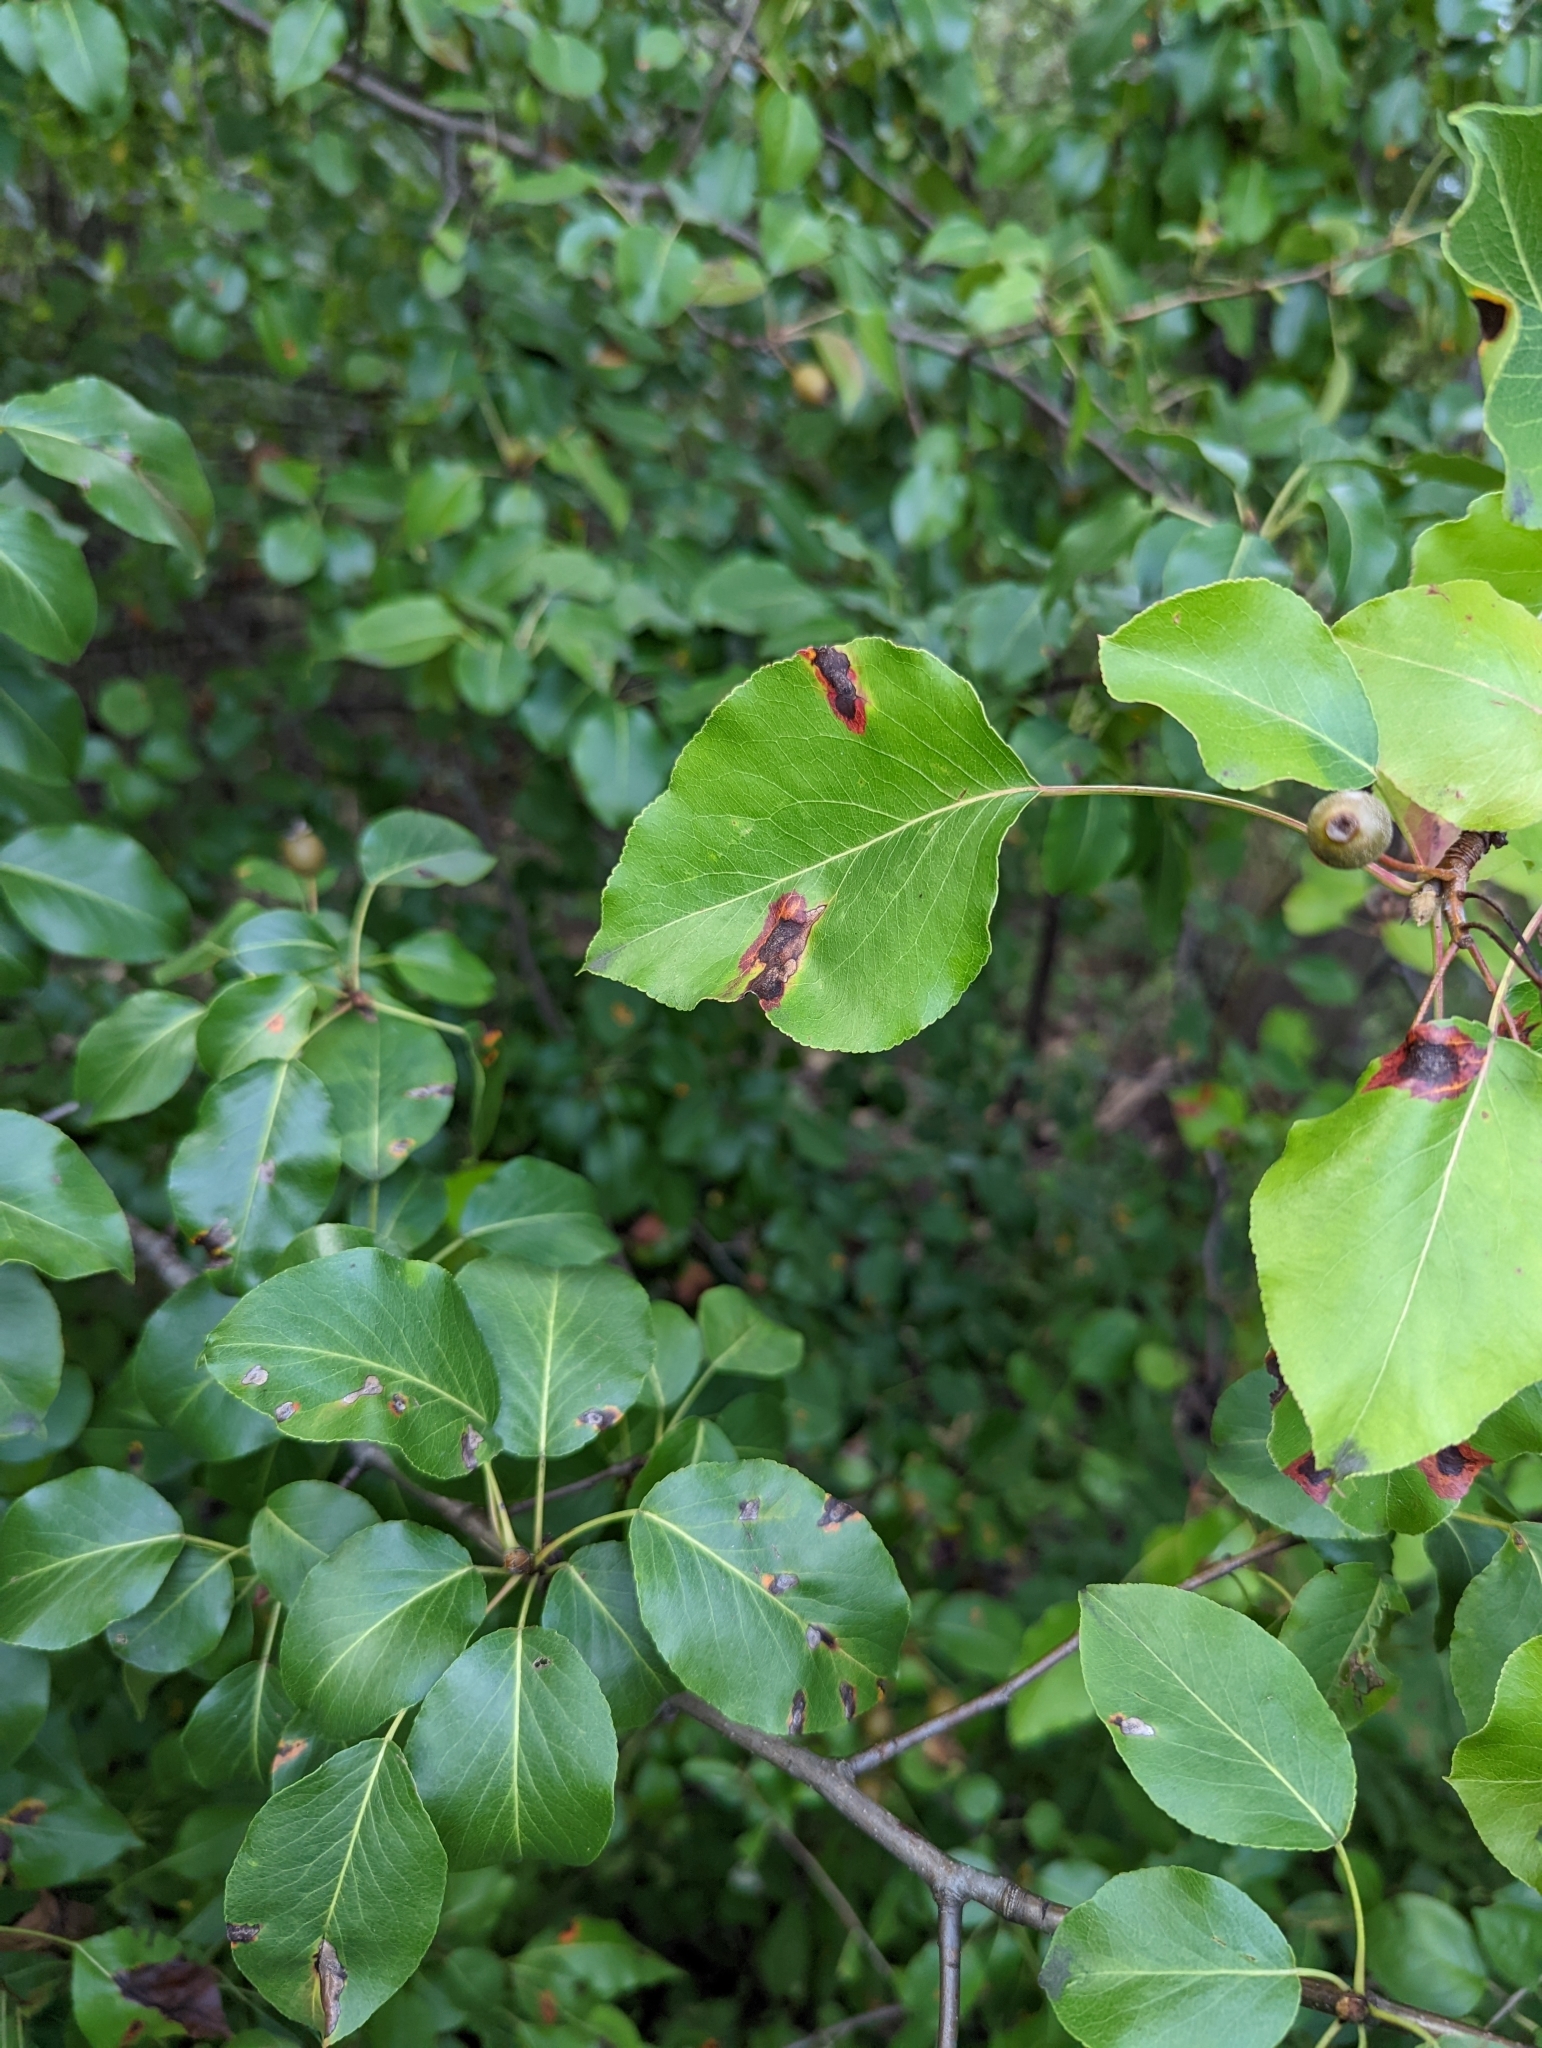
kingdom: Fungi
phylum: Basidiomycota
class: Pucciniomycetes
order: Pucciniales
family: Gymnosporangiaceae
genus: Gymnosporangium
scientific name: Gymnosporangium sabinae
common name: Pear trellis rust fungus
